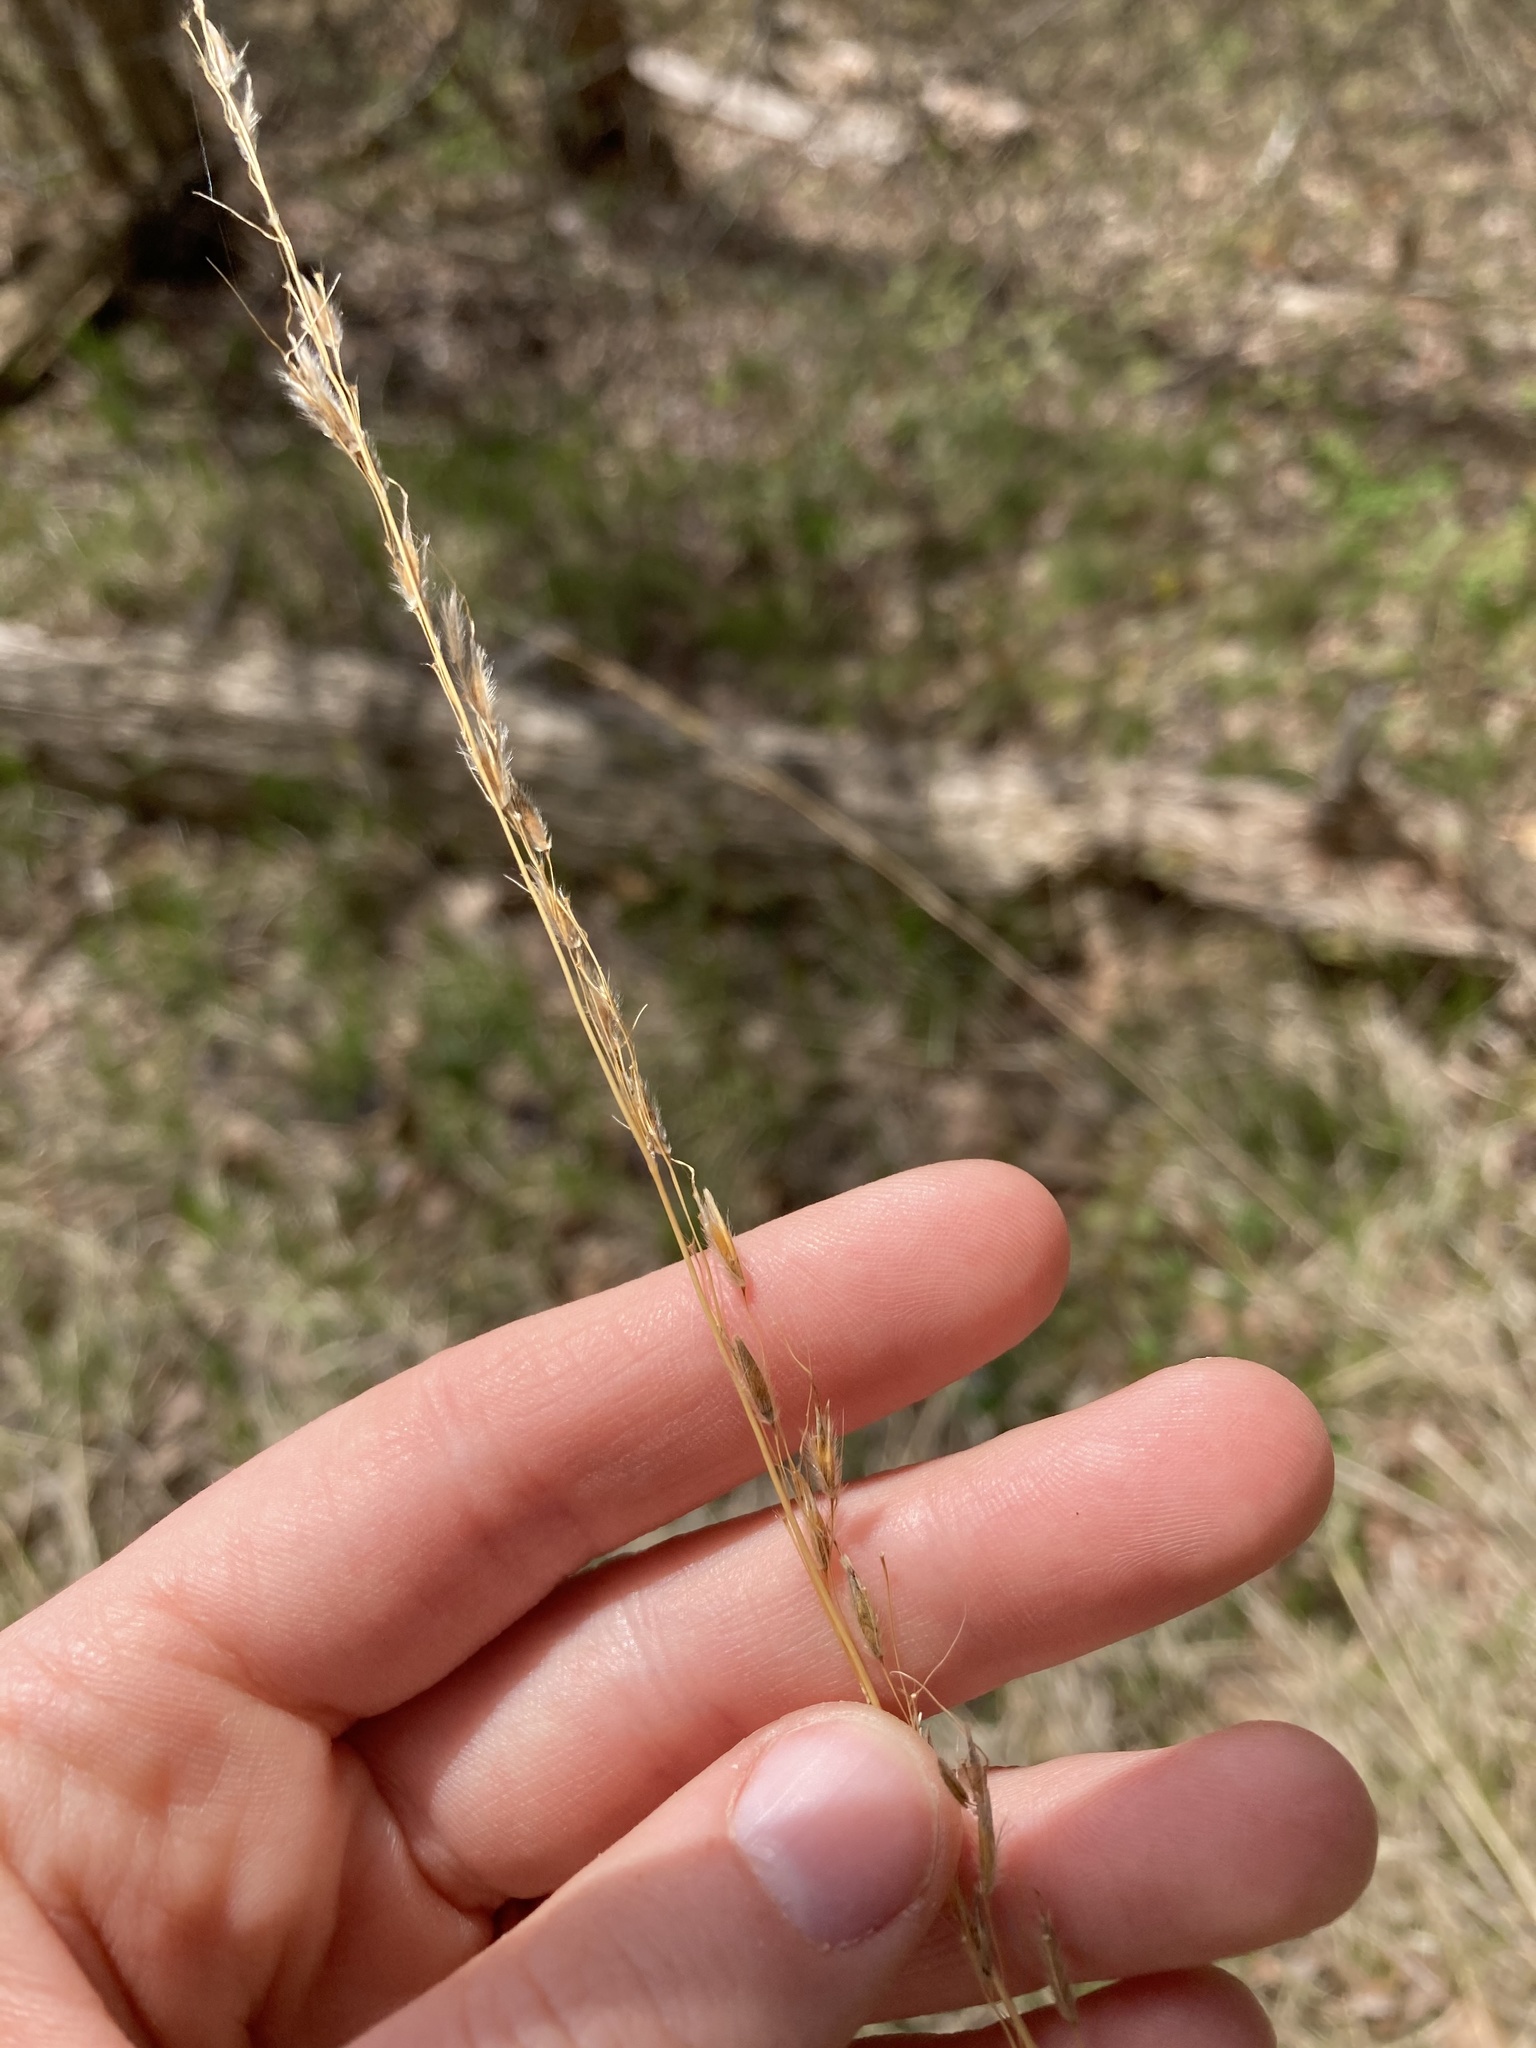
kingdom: Plantae
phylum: Tracheophyta
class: Liliopsida
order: Poales
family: Poaceae
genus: Schizachyrium
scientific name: Schizachyrium scoparium
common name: Little bluestem
